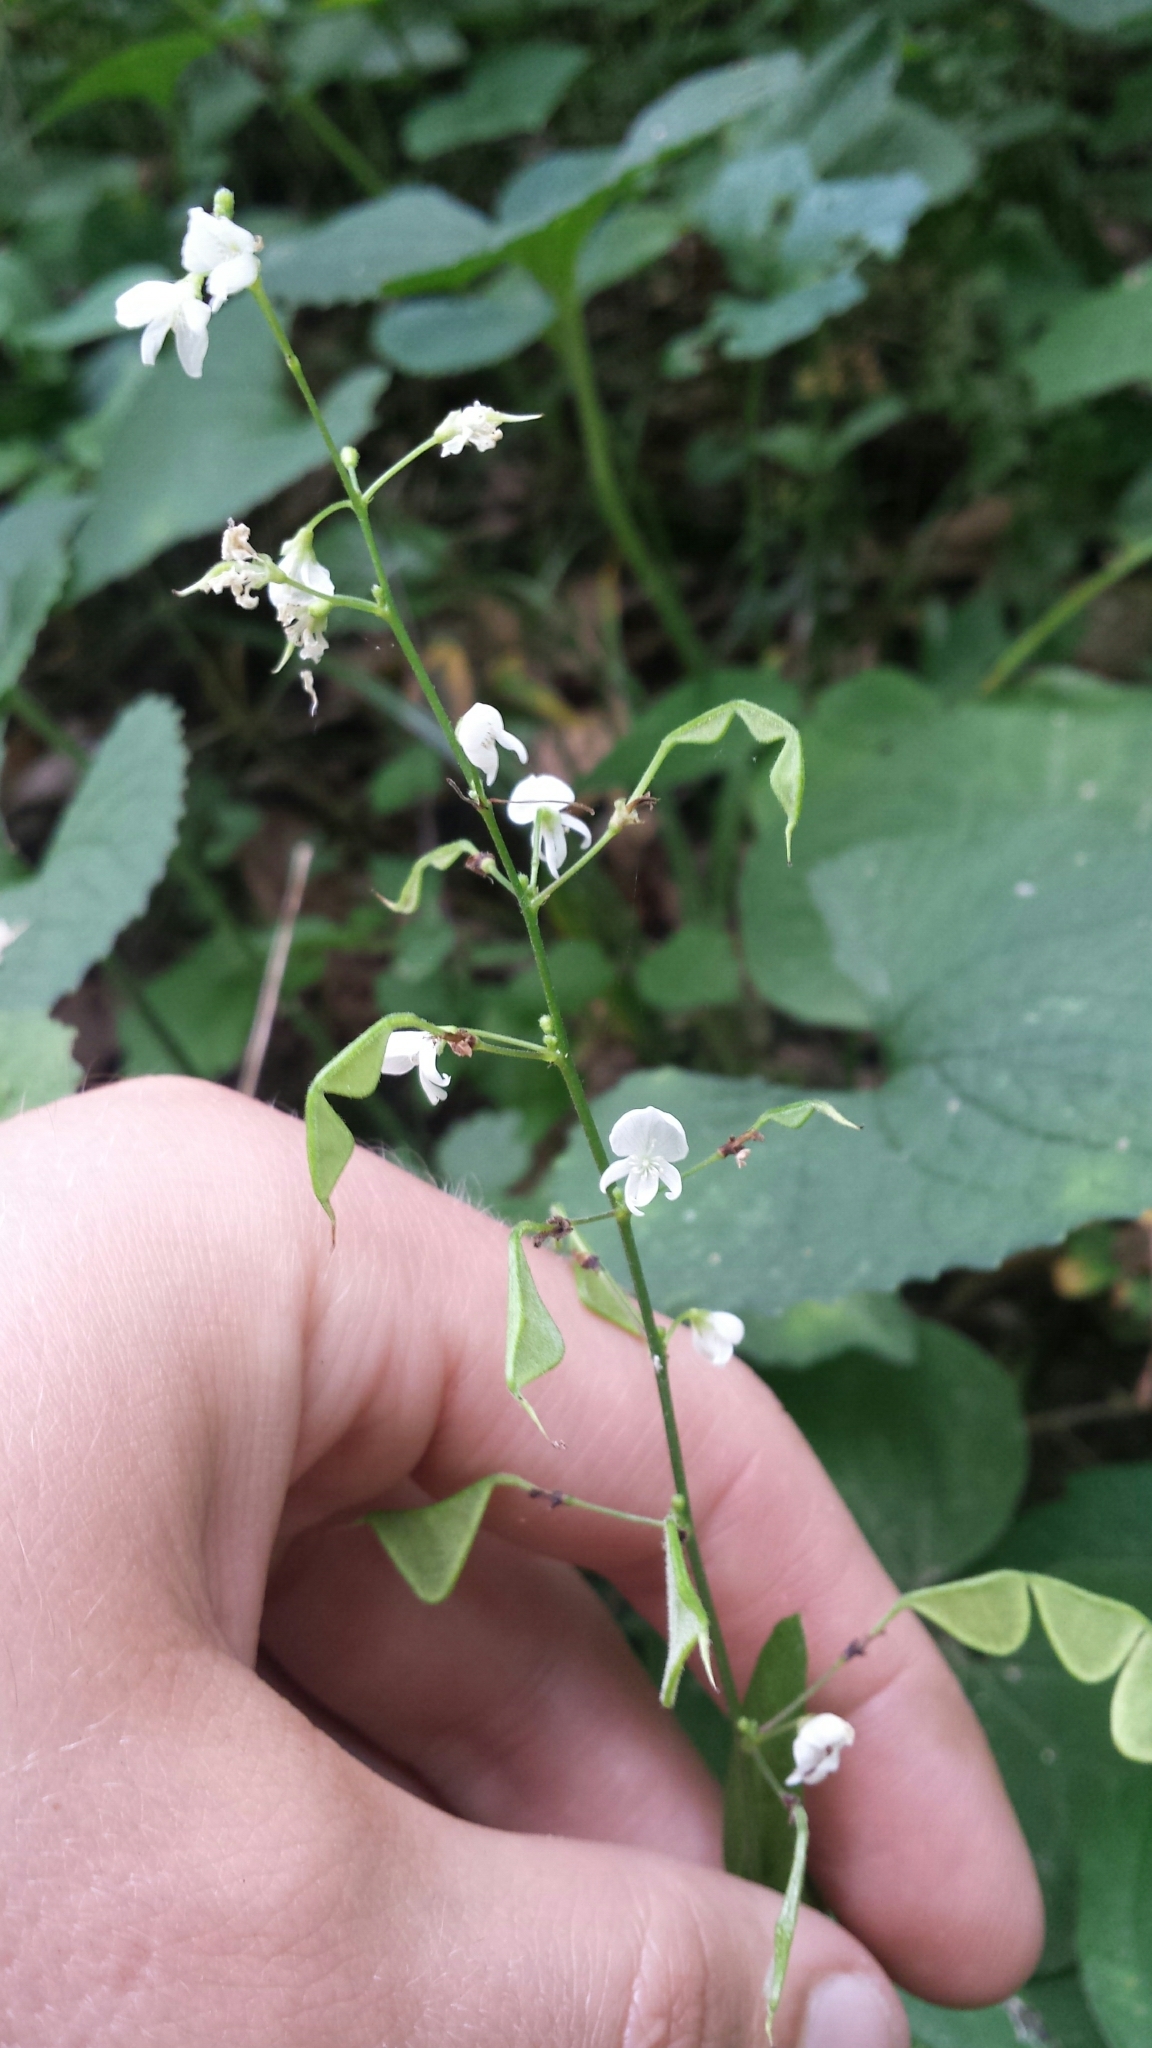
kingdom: Plantae
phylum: Tracheophyta
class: Magnoliopsida
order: Fabales
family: Fabaceae
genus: Hylodesmum
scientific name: Hylodesmum pauciflorum
